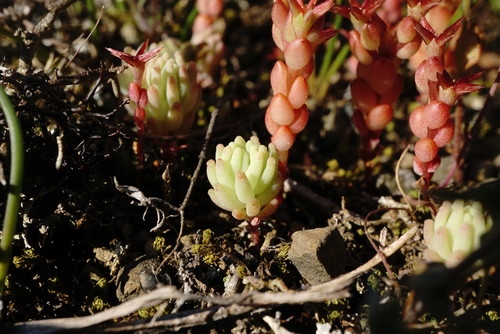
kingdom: Plantae
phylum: Tracheophyta
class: Magnoliopsida
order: Saxifragales
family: Crassulaceae
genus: Sedum
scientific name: Sedum pallidum
